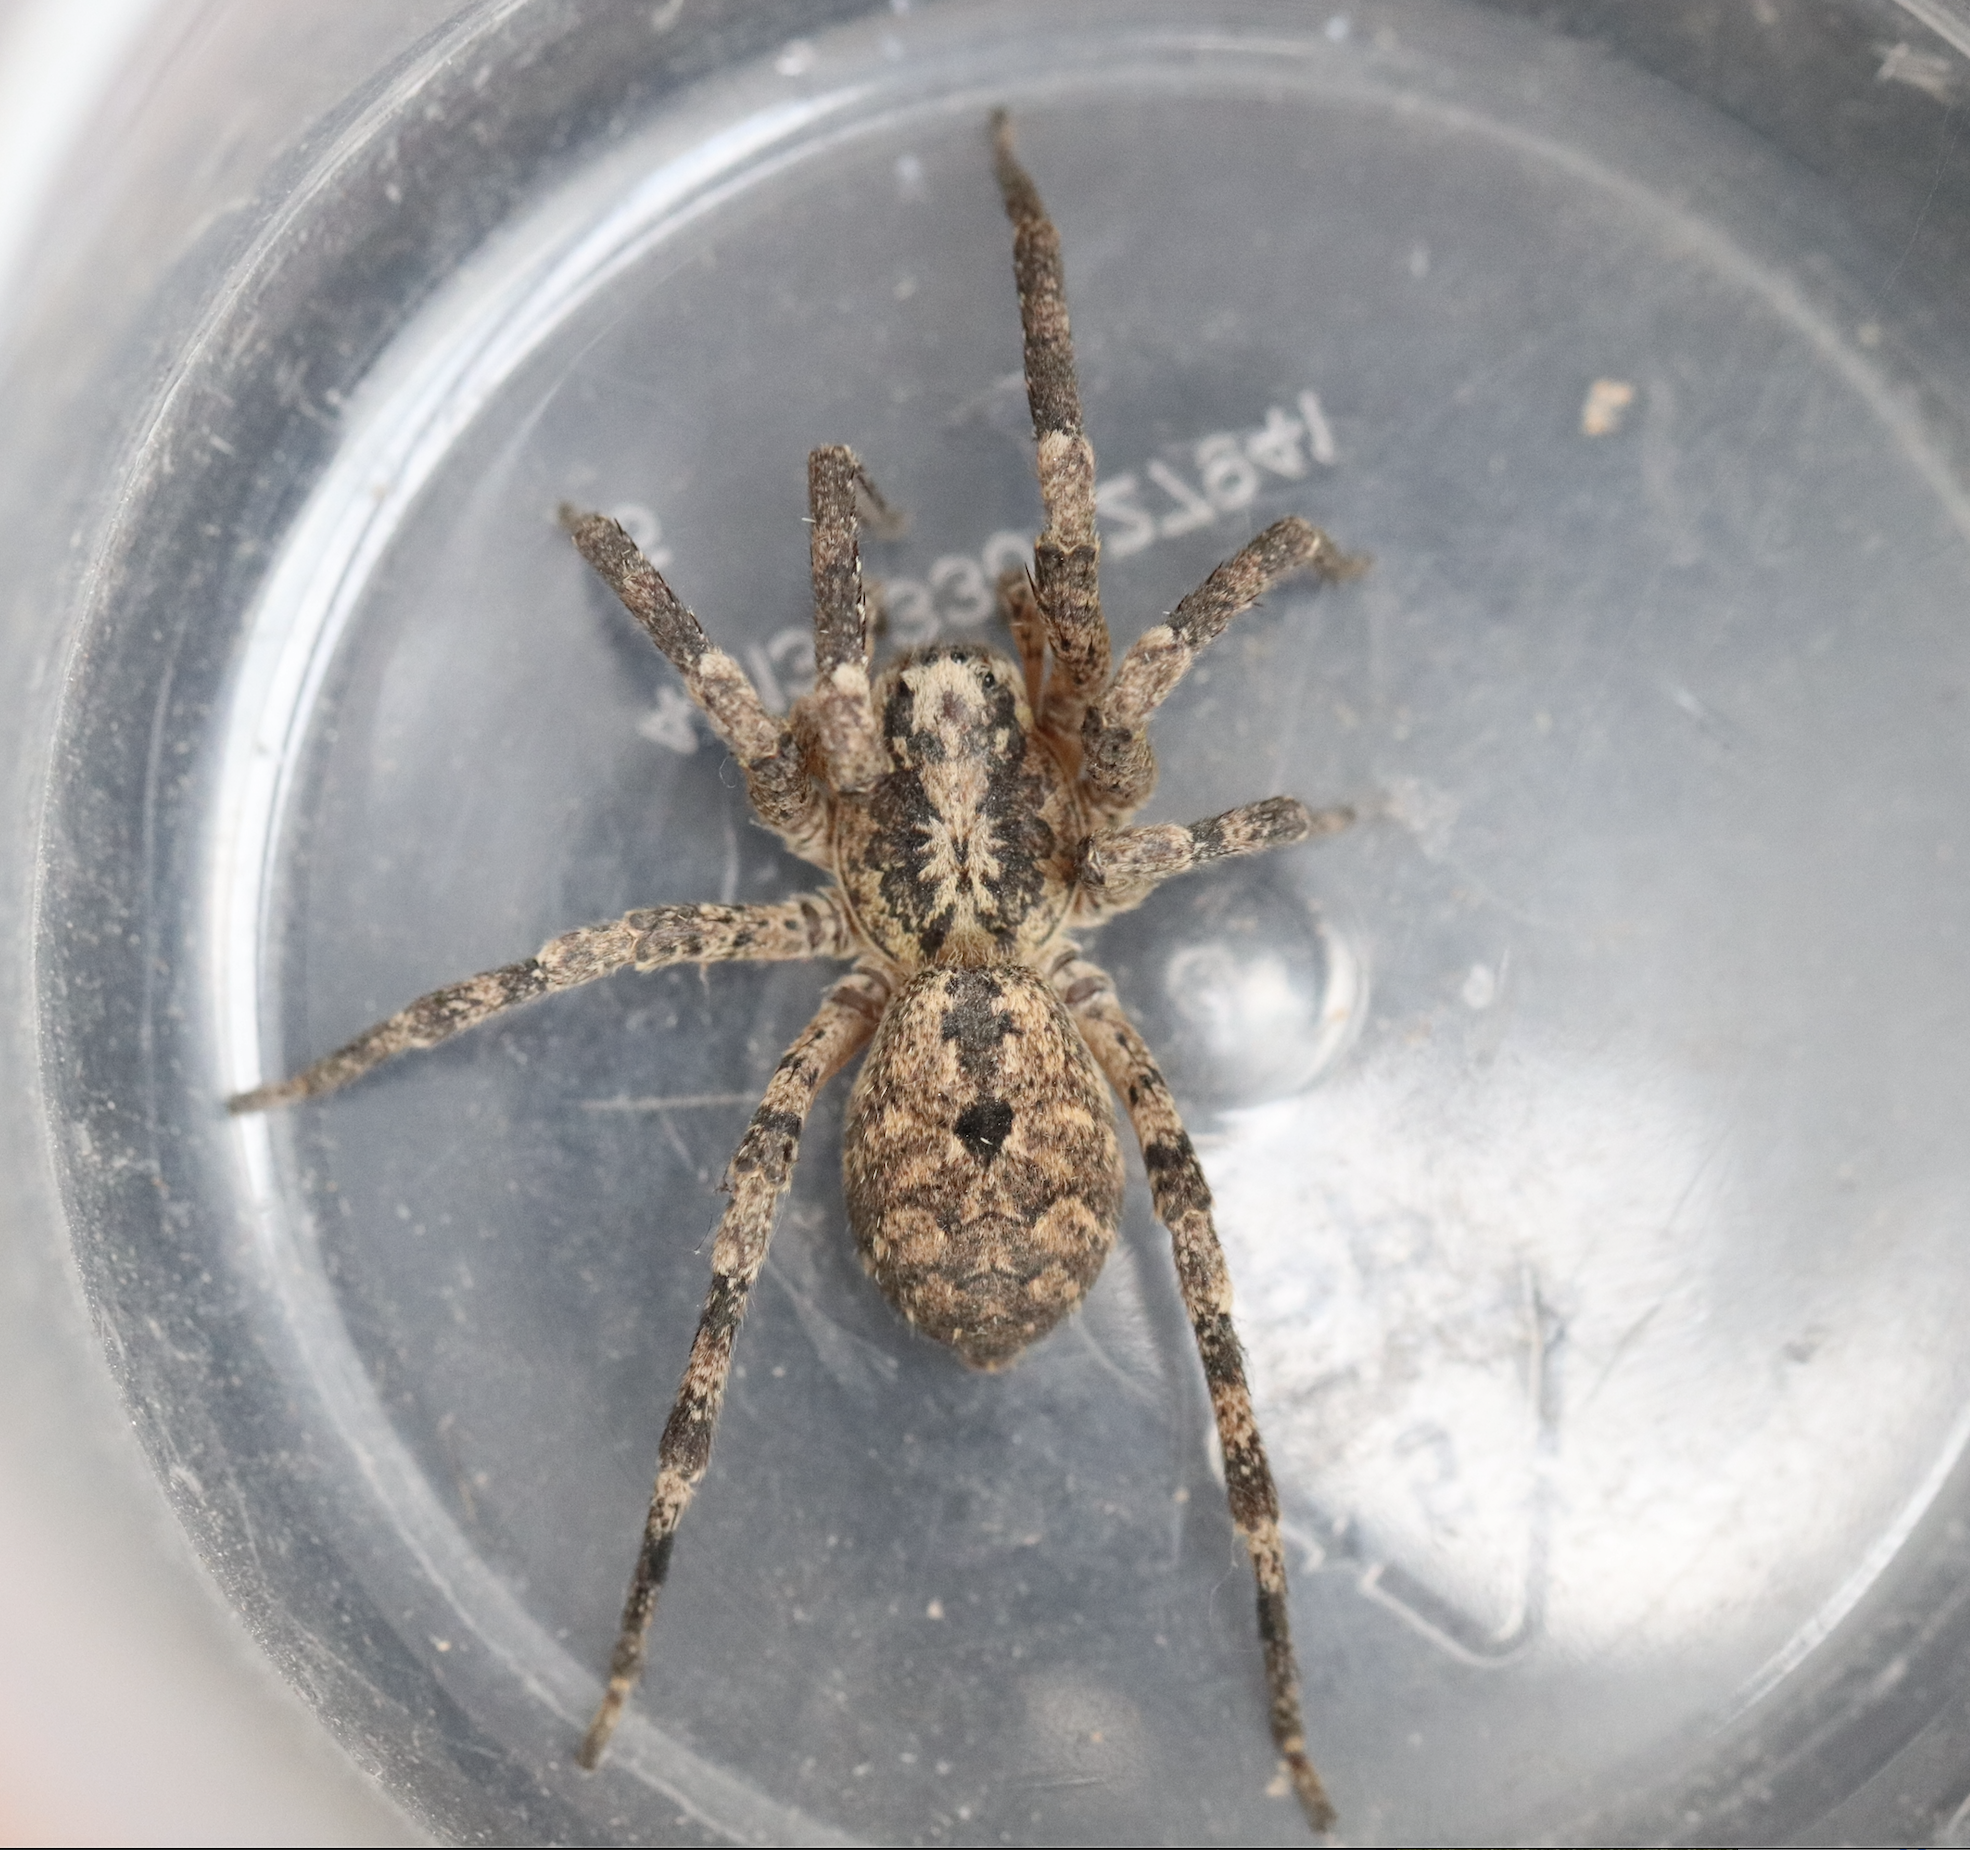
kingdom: Animalia
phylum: Arthropoda
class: Arachnida
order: Araneae
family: Zoropsidae
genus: Zoropsis
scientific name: Zoropsis spinimana
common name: Zoropsid spider
